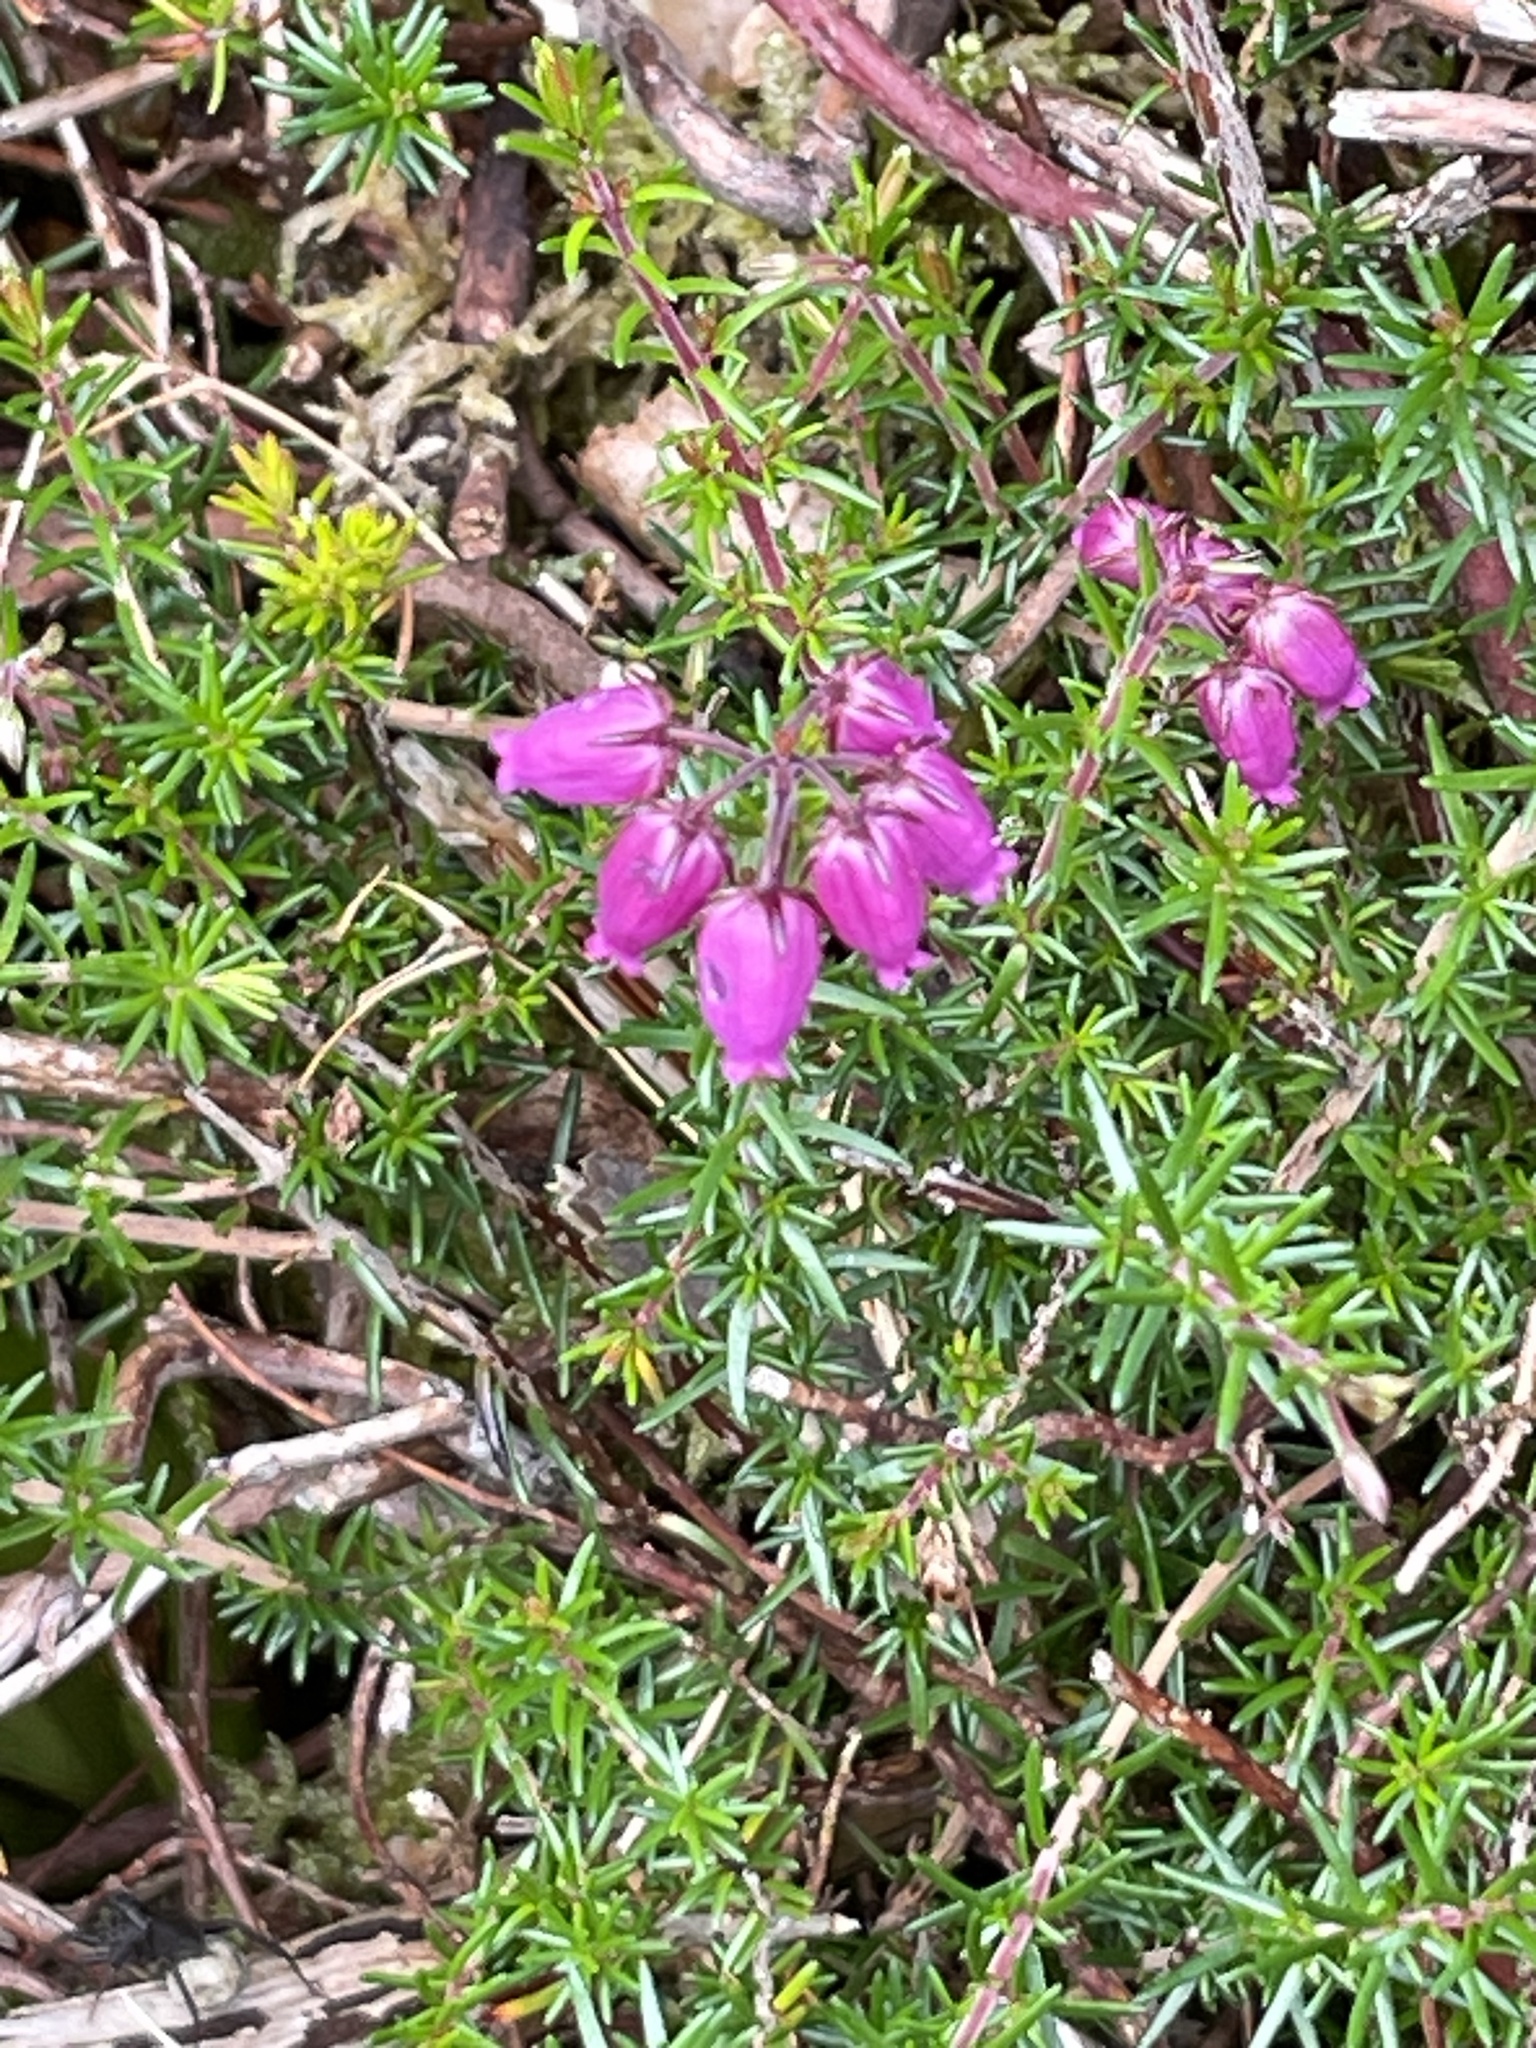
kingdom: Plantae
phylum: Tracheophyta
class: Magnoliopsida
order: Ericales
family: Ericaceae
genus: Erica
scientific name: Erica cinerea
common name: Bell heather
